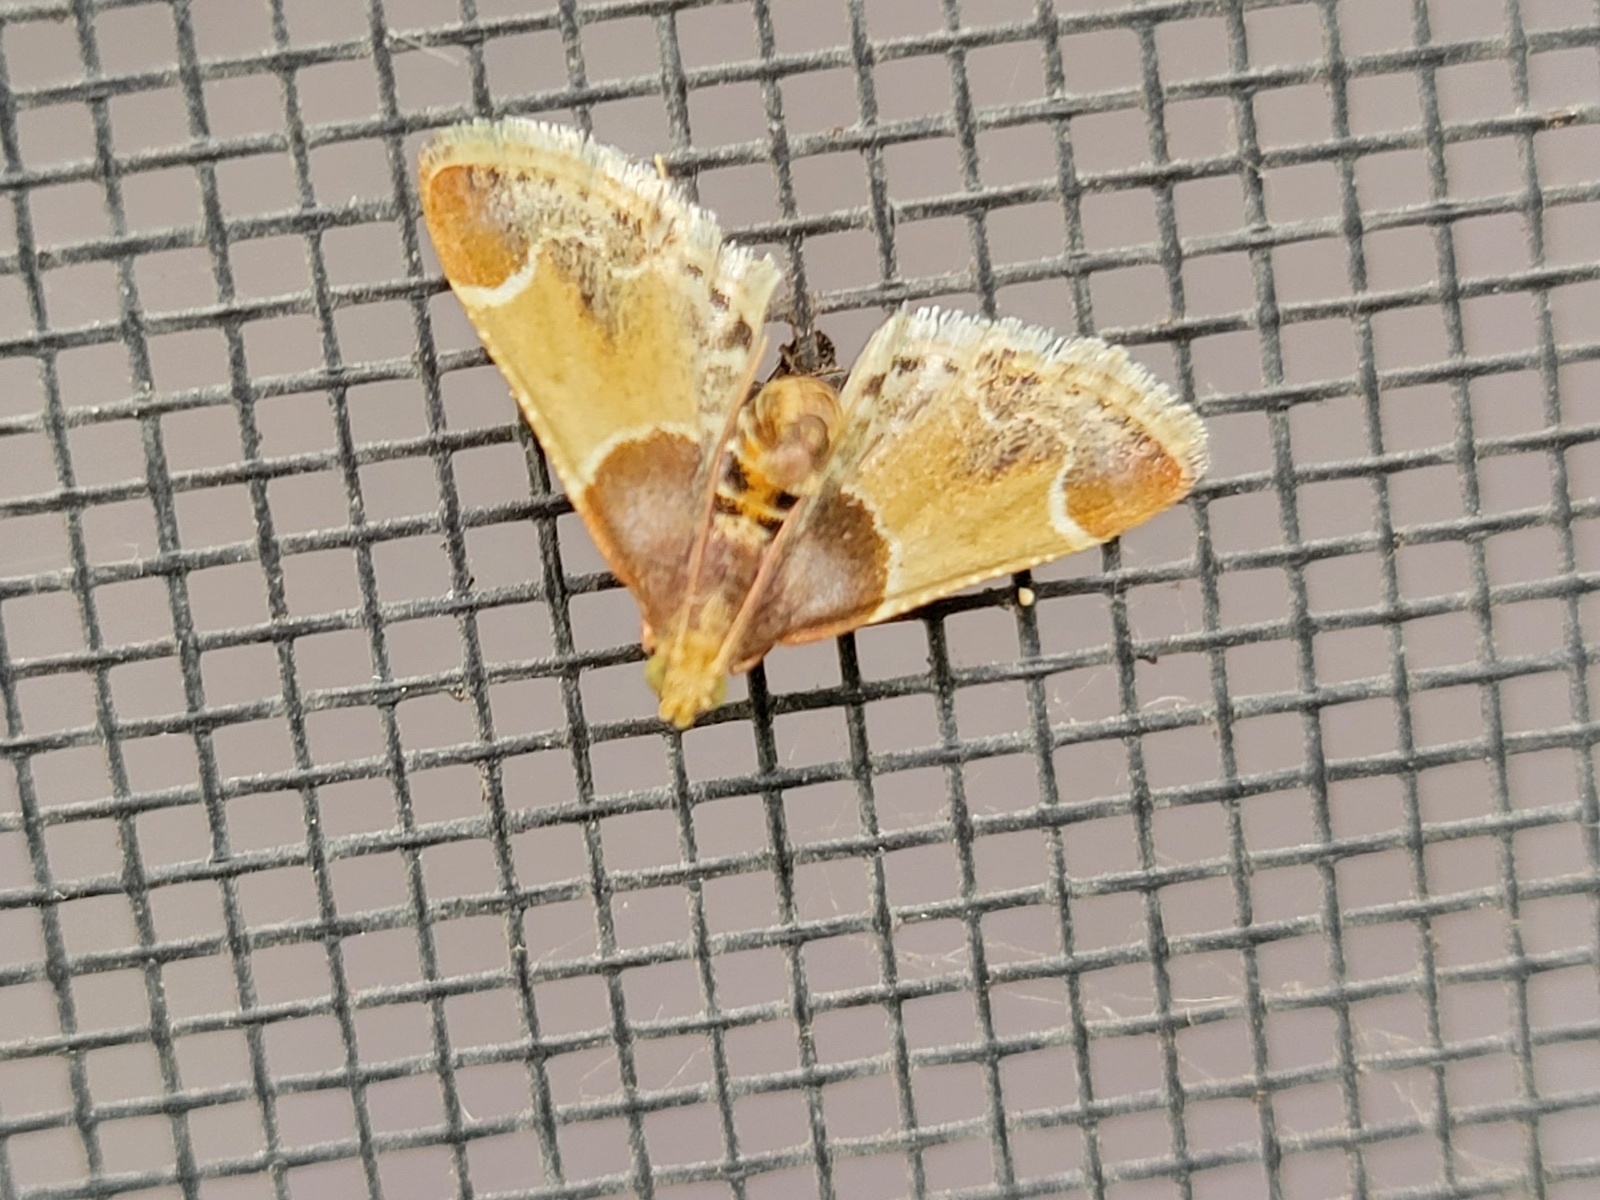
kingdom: Animalia
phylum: Arthropoda
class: Insecta
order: Lepidoptera
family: Pyralidae
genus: Pyralis
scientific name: Pyralis farinalis
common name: Meal moth
